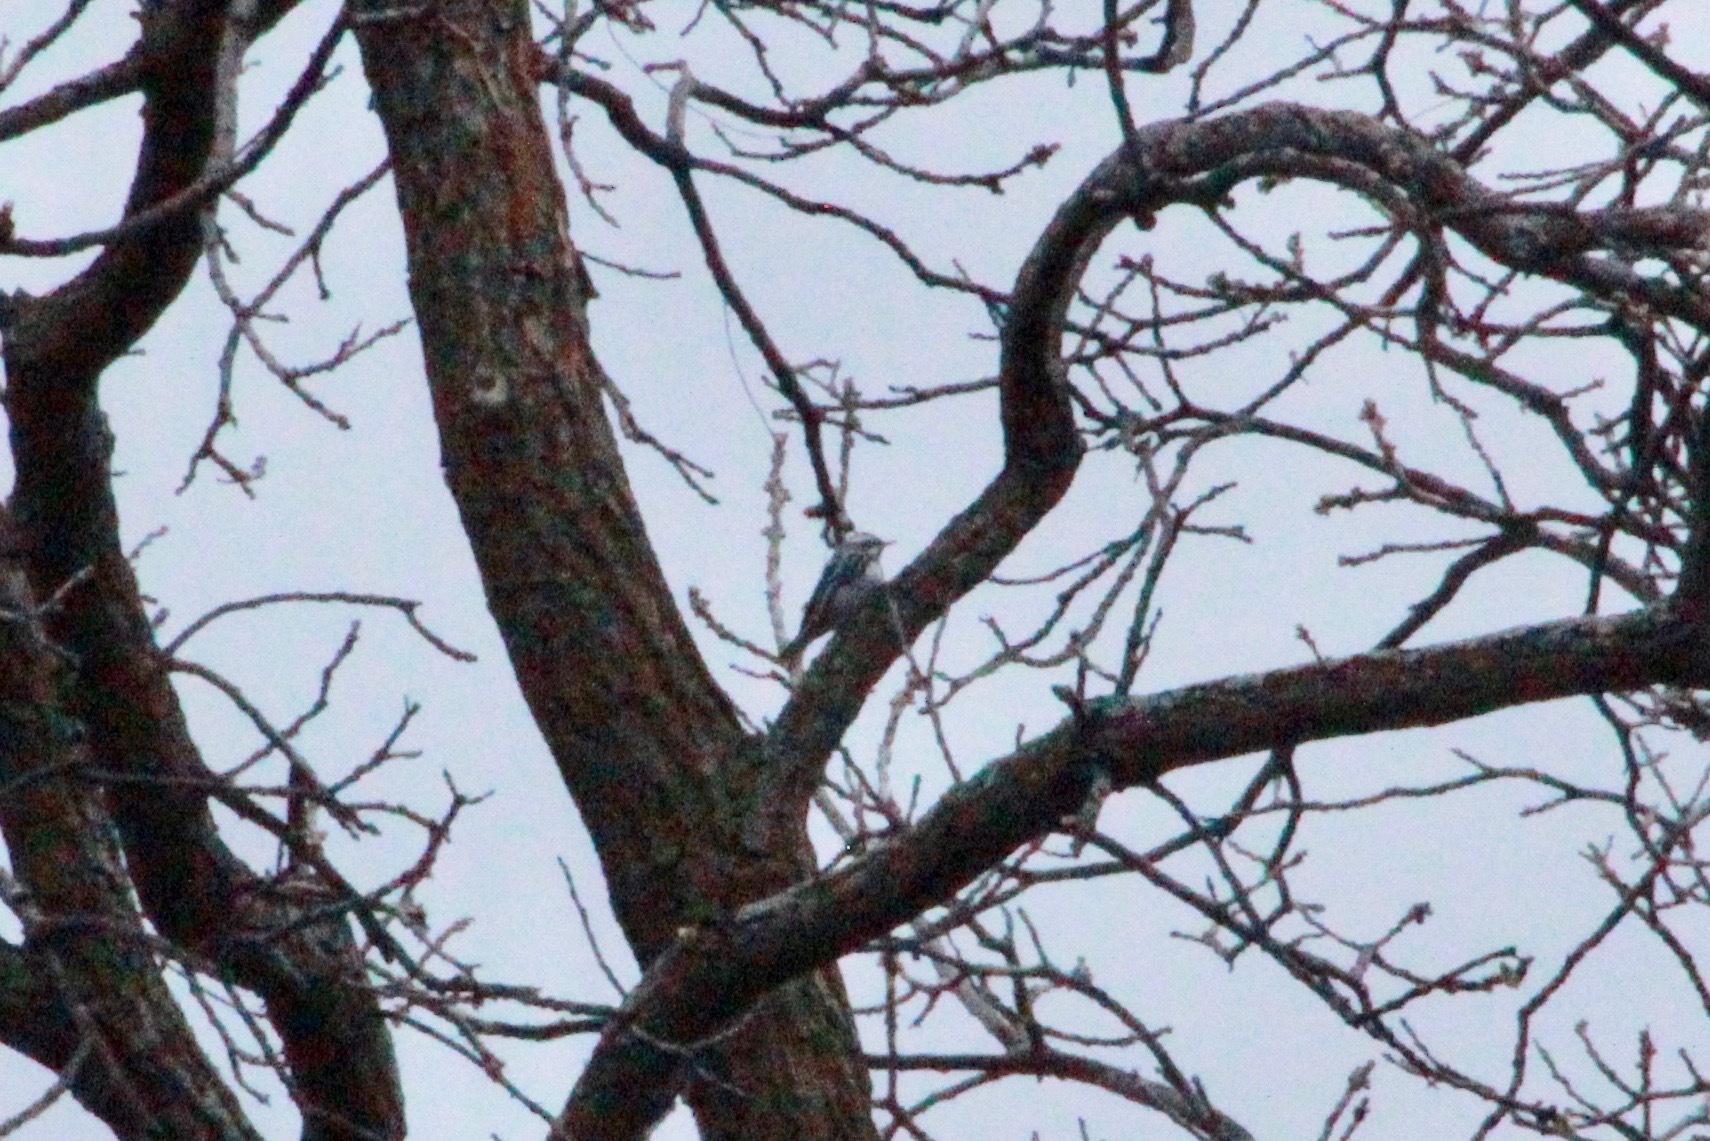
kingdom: Animalia
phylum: Chordata
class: Aves
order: Passeriformes
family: Parulidae
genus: Mniotilta
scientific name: Mniotilta varia
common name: Black-and-white warbler
